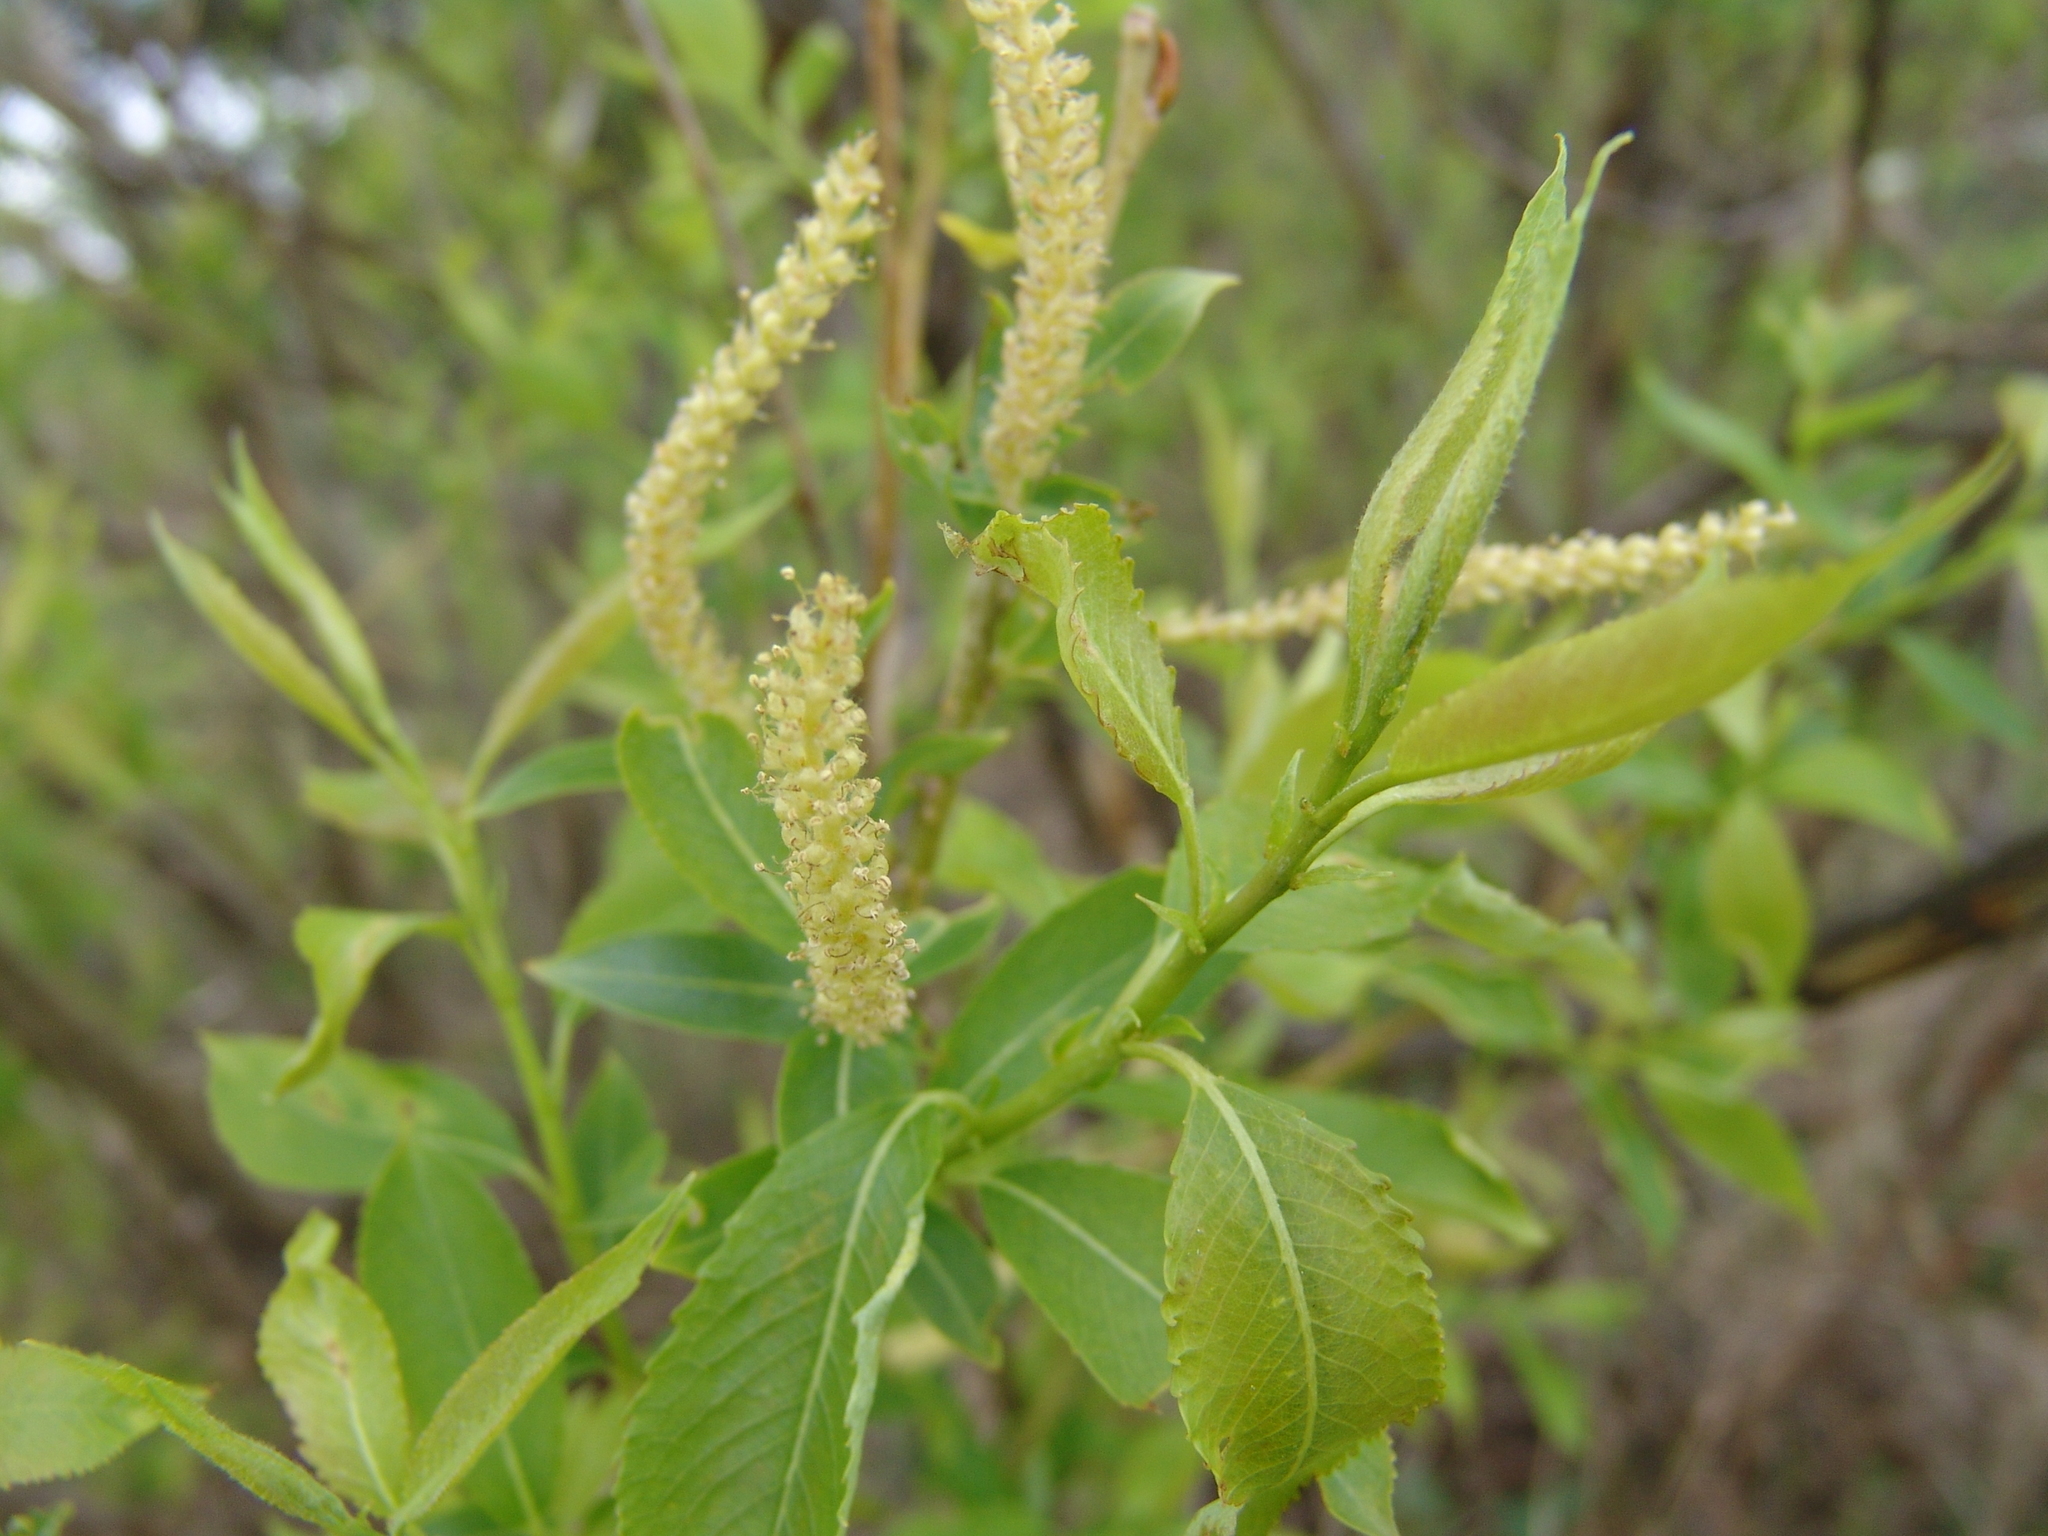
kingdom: Plantae
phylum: Tracheophyta
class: Magnoliopsida
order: Malpighiales
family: Salicaceae
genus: Salix
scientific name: Salix triandra
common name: Almond willow
